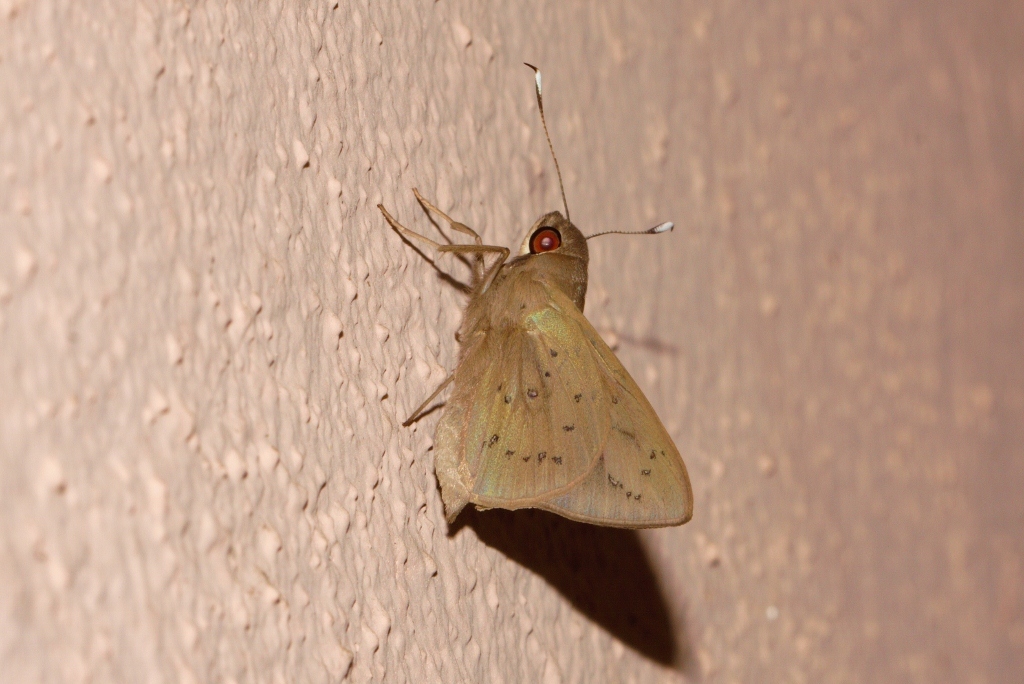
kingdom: Animalia
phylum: Arthropoda
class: Insecta
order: Lepidoptera
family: Hesperiidae
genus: Zophopetes
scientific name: Zophopetes dysmephila
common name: Palm-tree nightfighter
